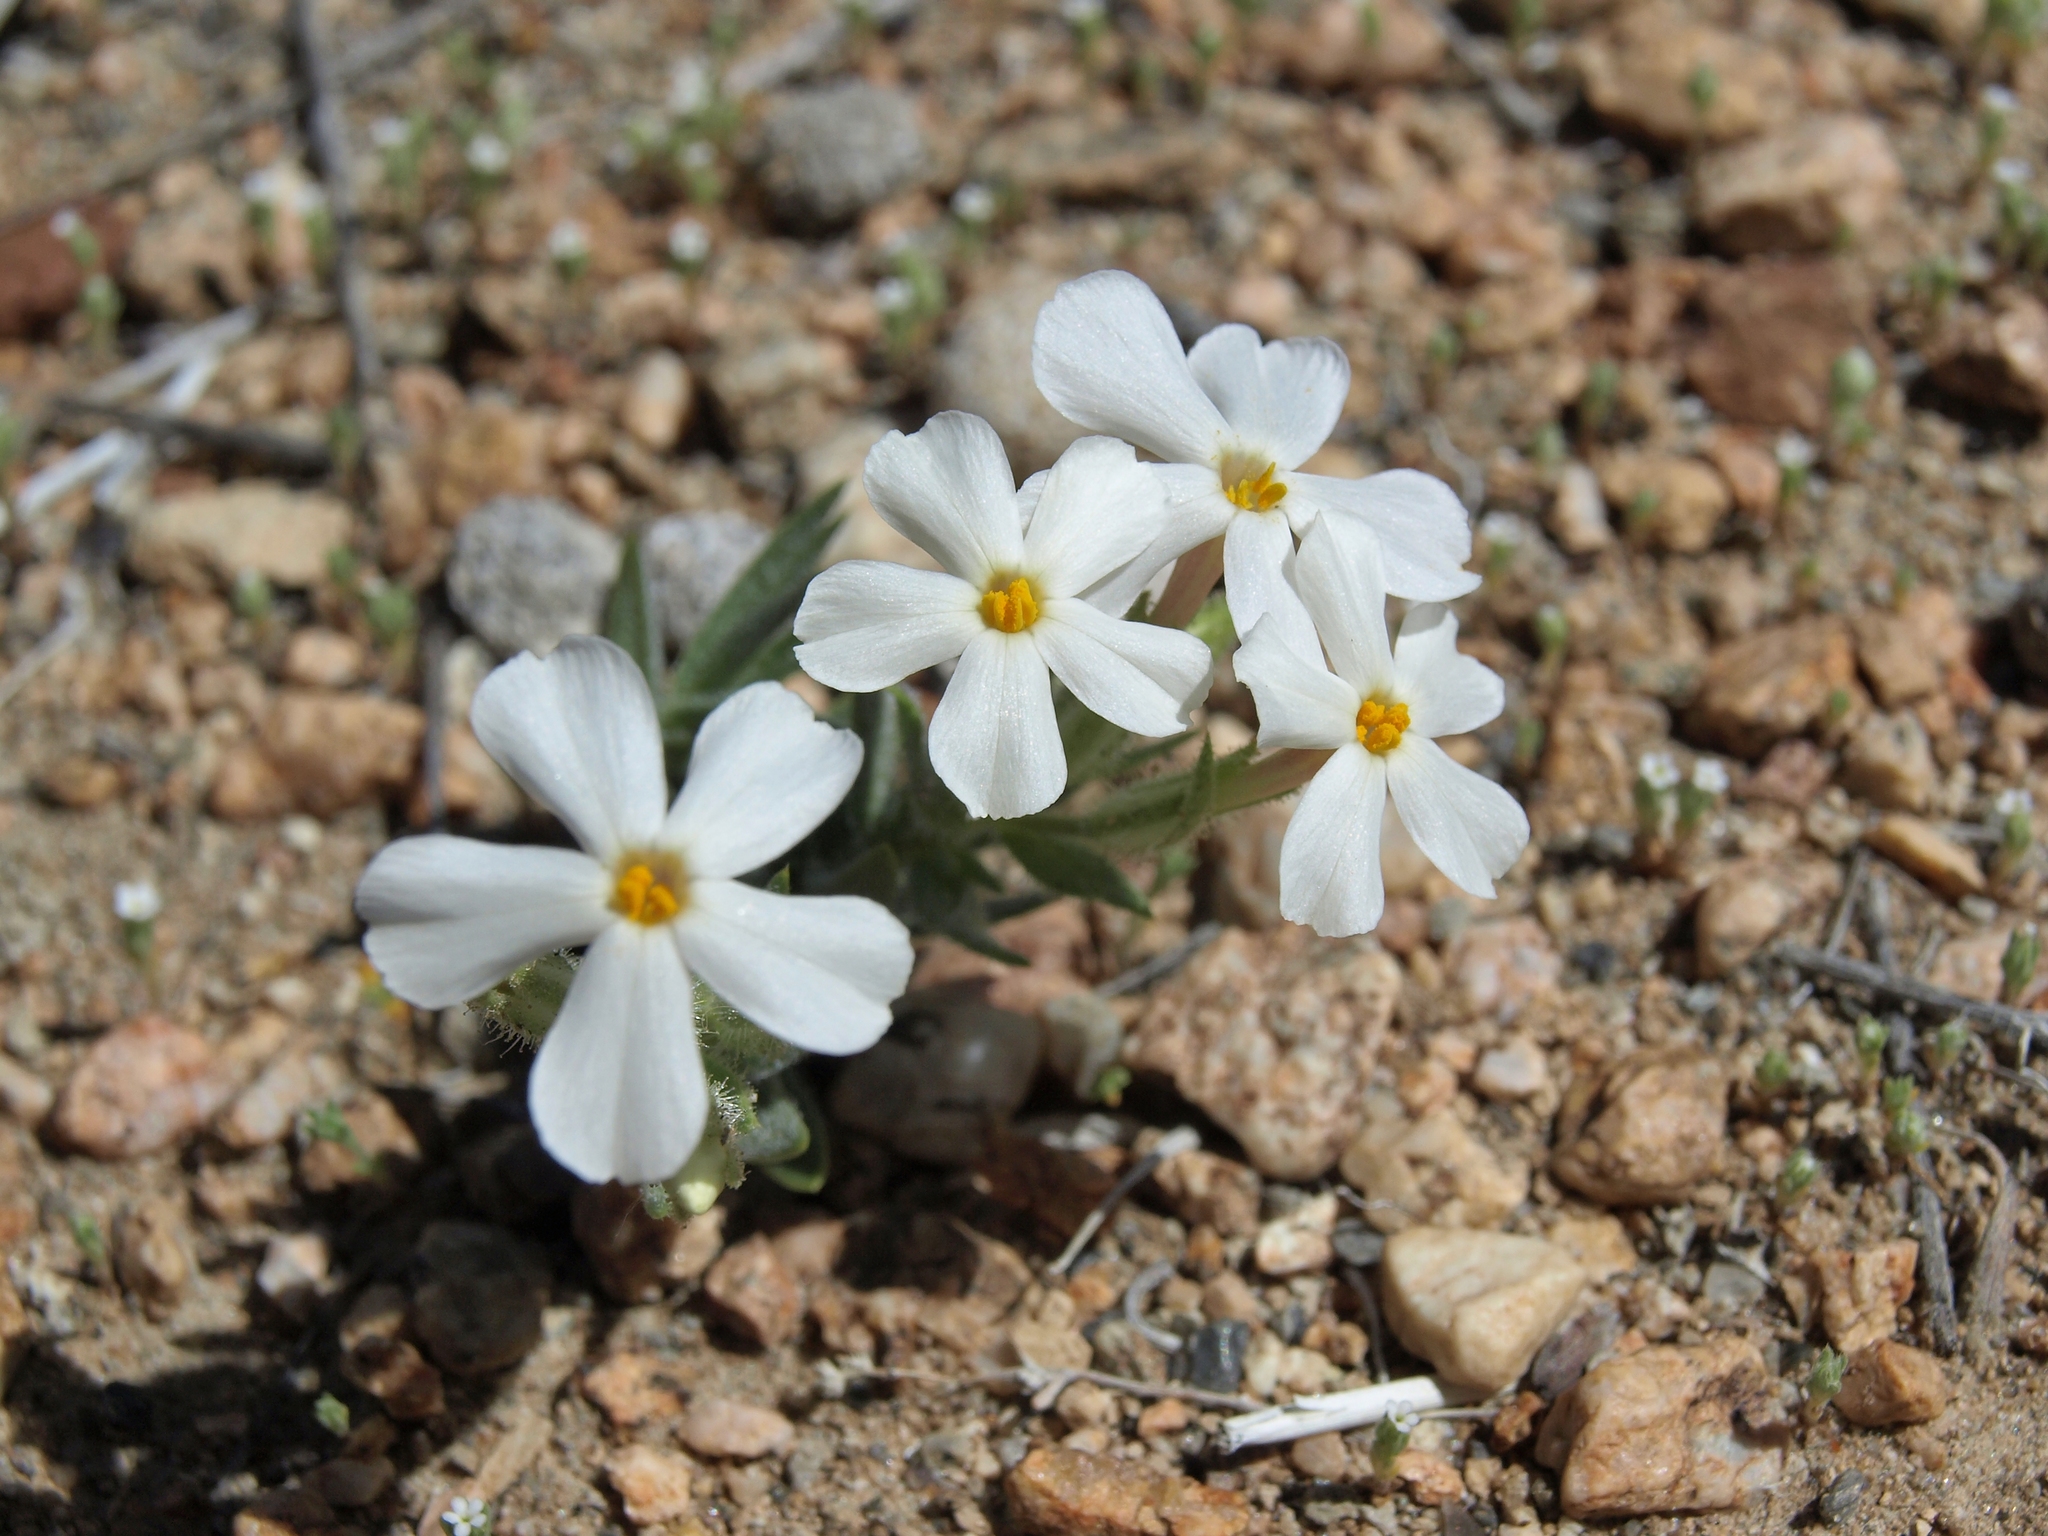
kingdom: Plantae
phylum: Tracheophyta
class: Magnoliopsida
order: Ericales
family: Polemoniaceae
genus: Phlox
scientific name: Phlox longifolia
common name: Longleaf phlox
